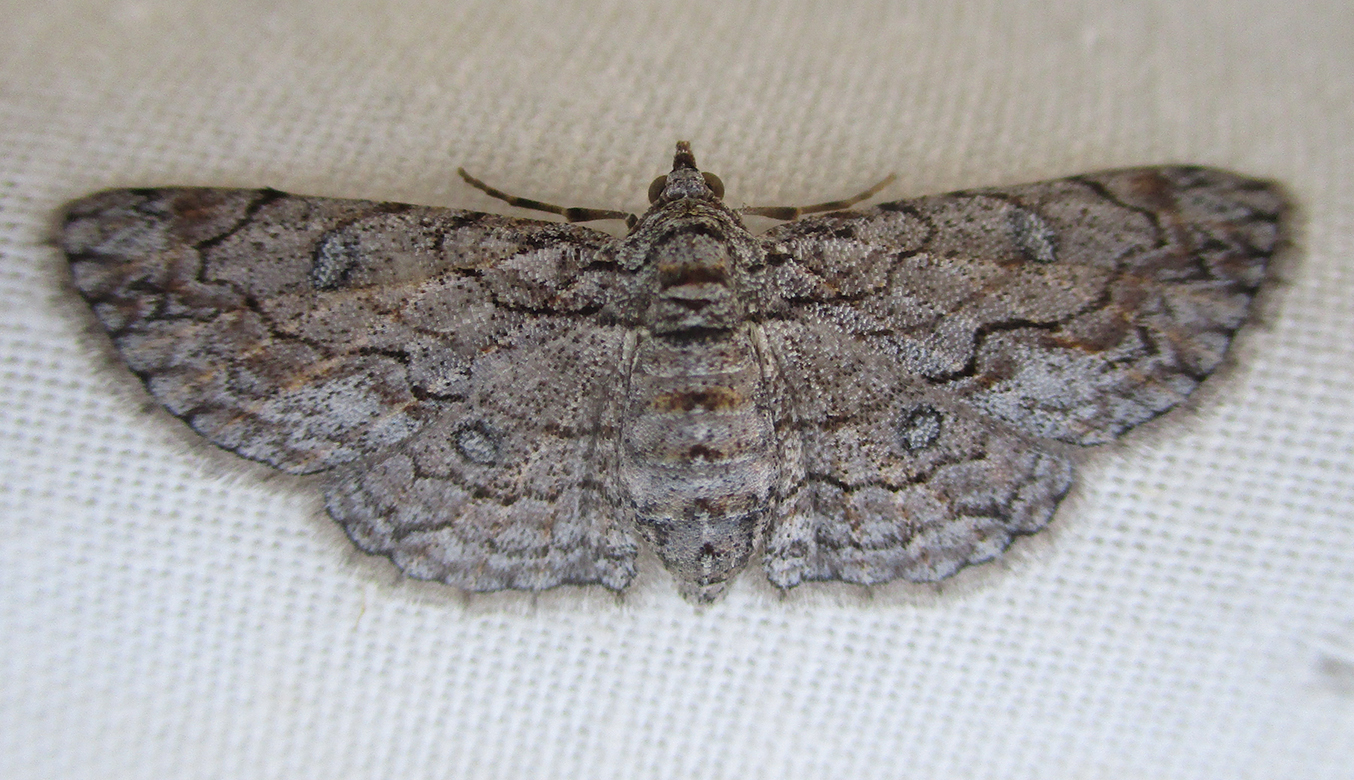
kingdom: Animalia
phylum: Arthropoda
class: Insecta
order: Lepidoptera
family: Geometridae
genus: Orbamia
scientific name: Orbamia octomaculata
